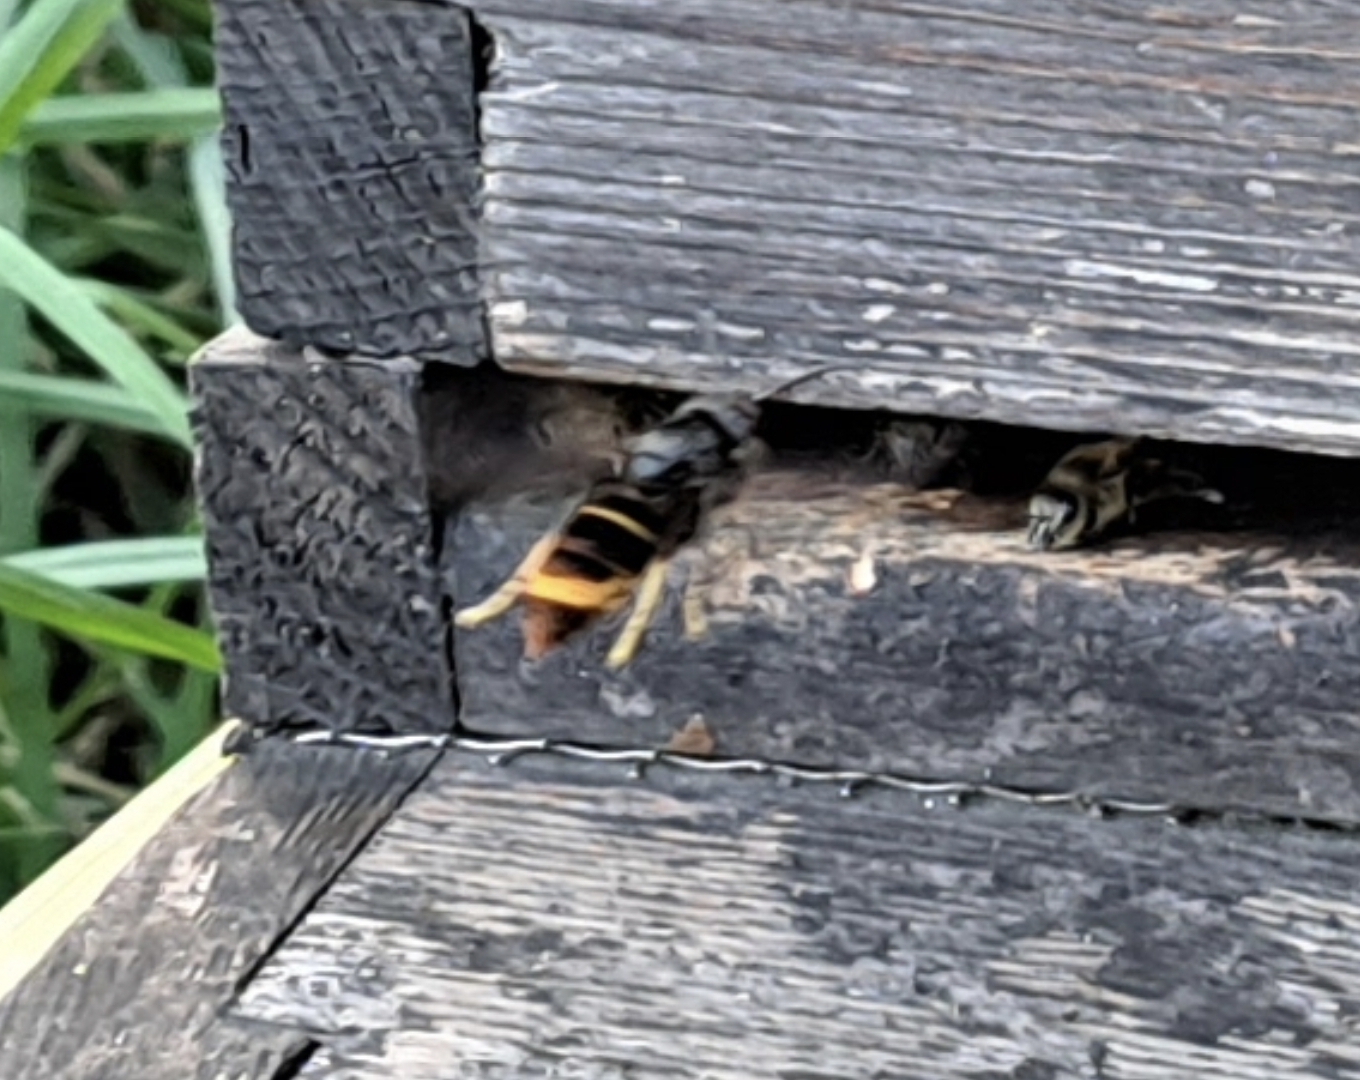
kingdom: Animalia
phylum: Arthropoda
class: Insecta
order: Hymenoptera
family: Vespidae
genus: Vespa
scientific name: Vespa velutina
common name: Asian hornet
